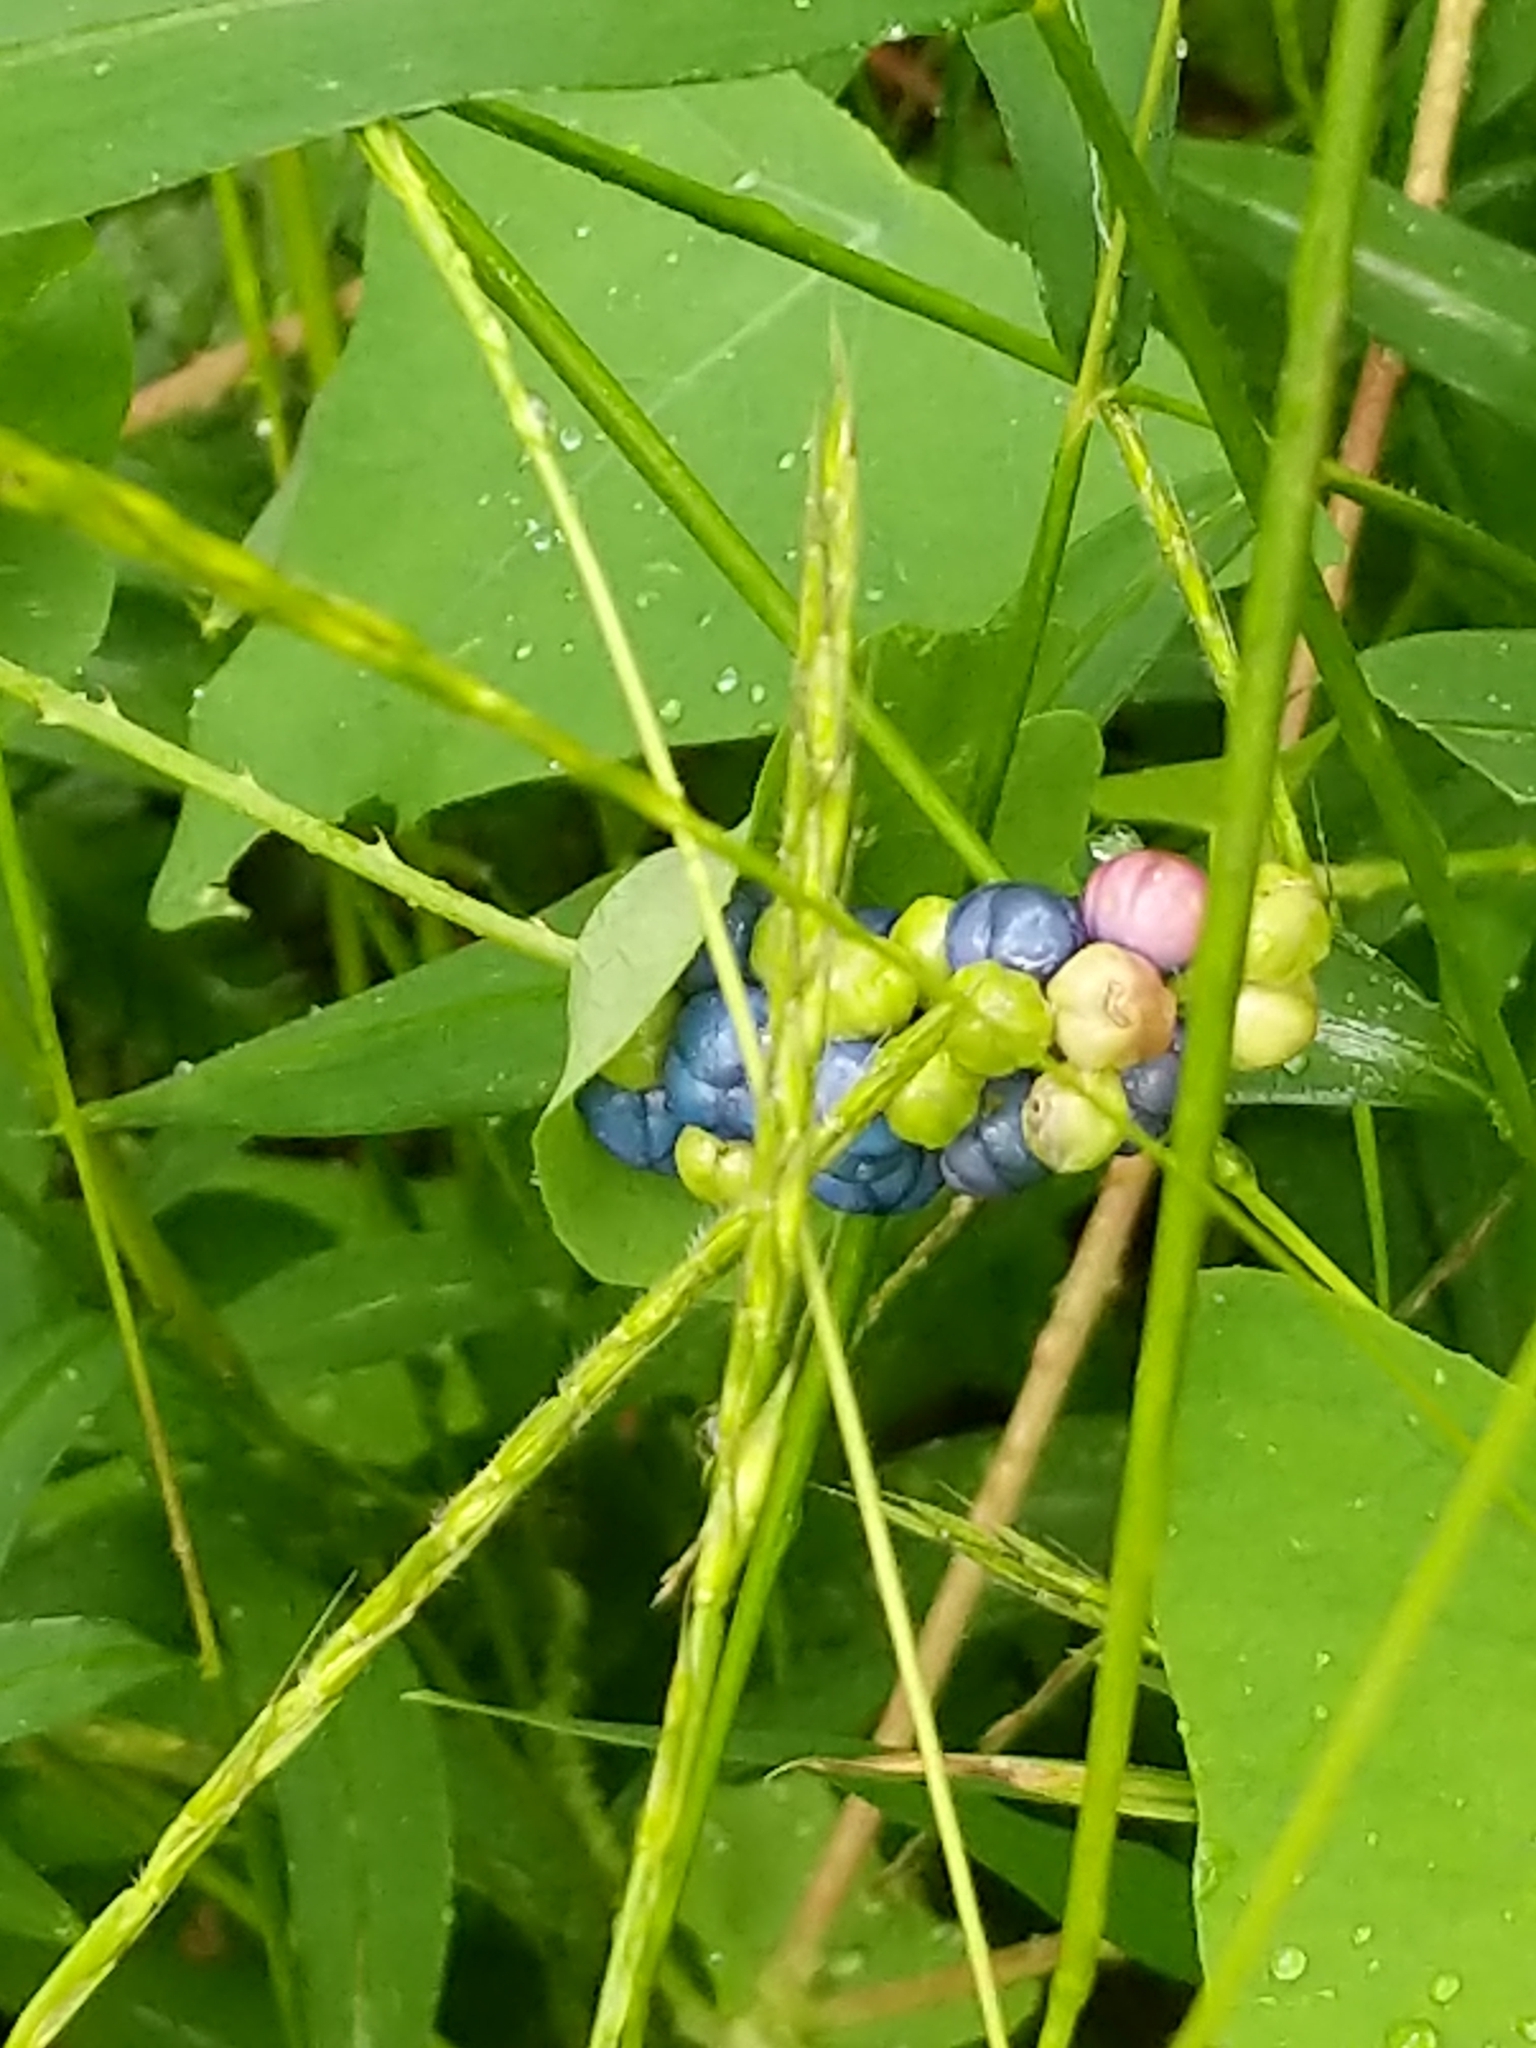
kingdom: Plantae
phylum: Tracheophyta
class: Magnoliopsida
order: Caryophyllales
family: Polygonaceae
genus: Persicaria
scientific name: Persicaria perfoliata
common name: Asiatic tearthumb
